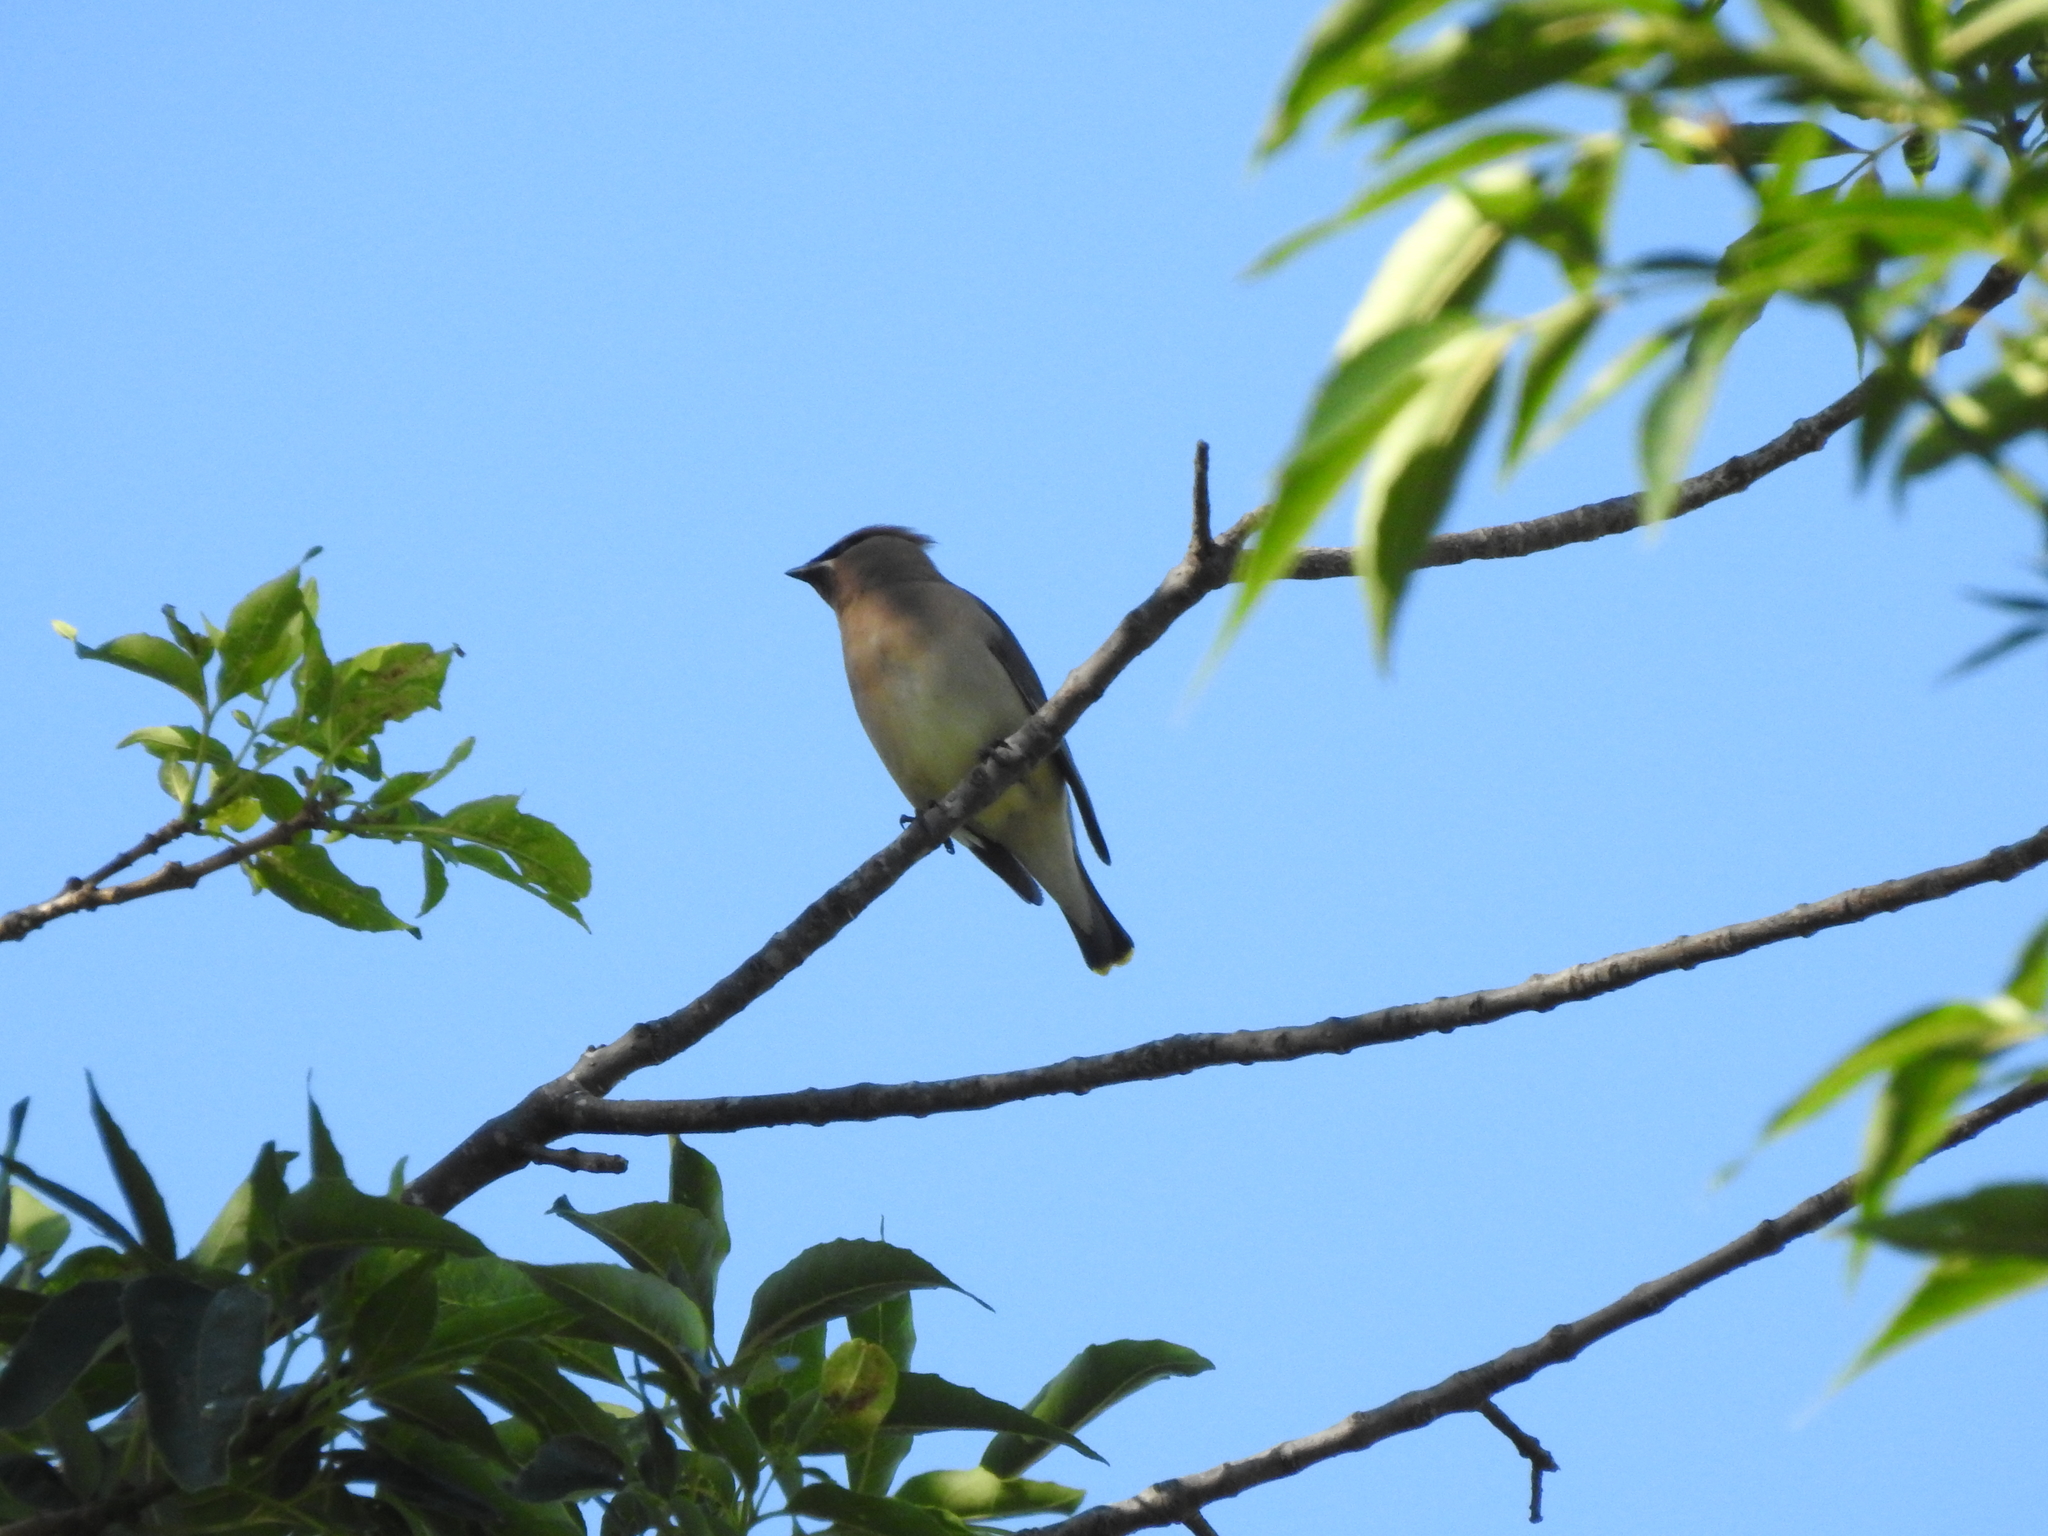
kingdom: Animalia
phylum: Chordata
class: Aves
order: Passeriformes
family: Bombycillidae
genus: Bombycilla
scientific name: Bombycilla cedrorum
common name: Cedar waxwing
